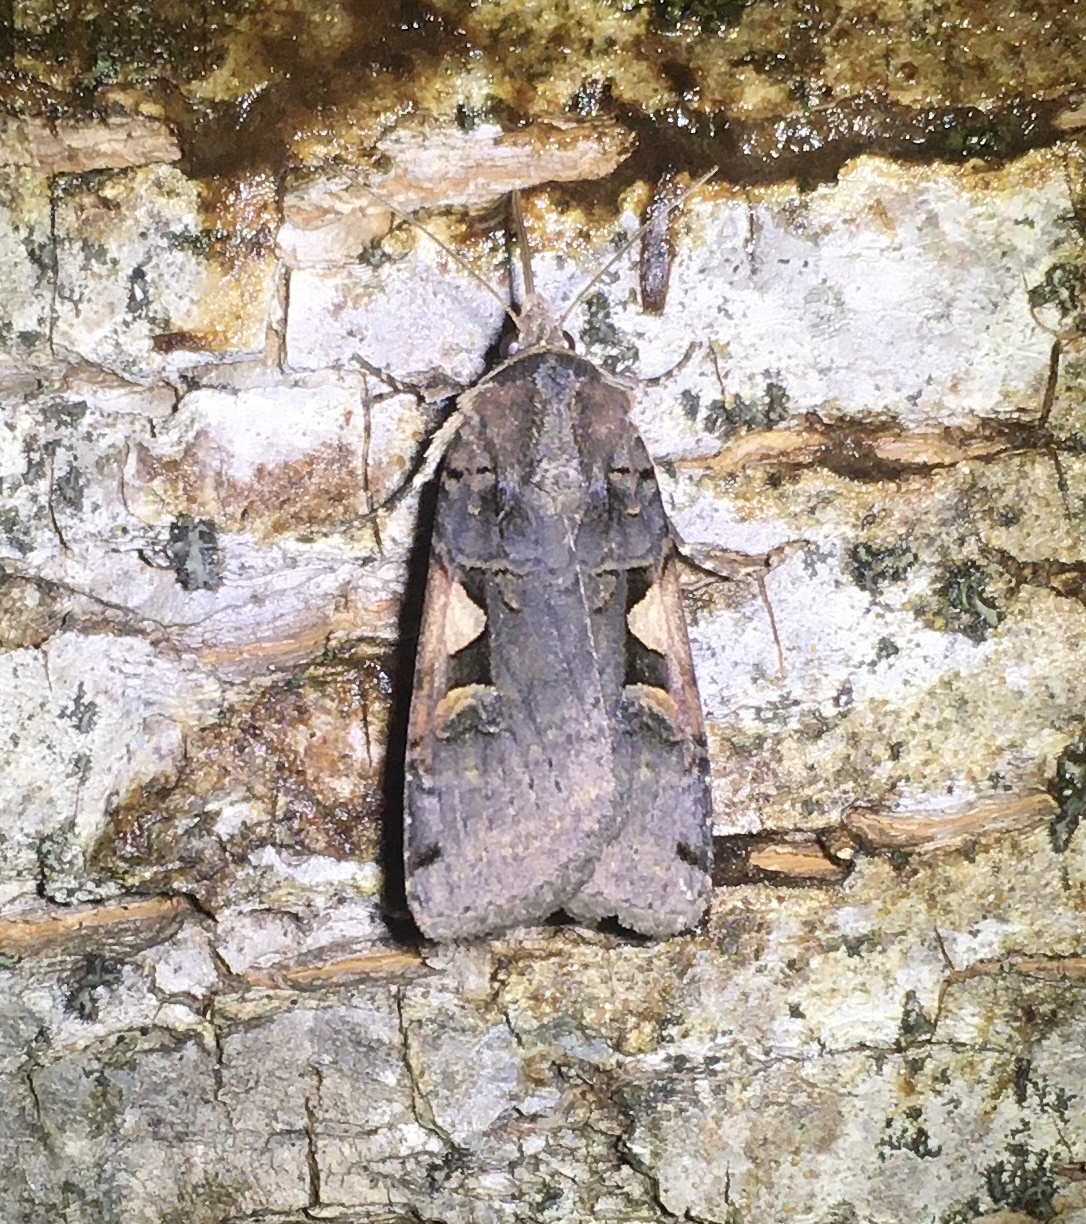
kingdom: Animalia
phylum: Arthropoda
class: Insecta
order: Lepidoptera
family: Noctuidae
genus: Xestia
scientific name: Xestia
